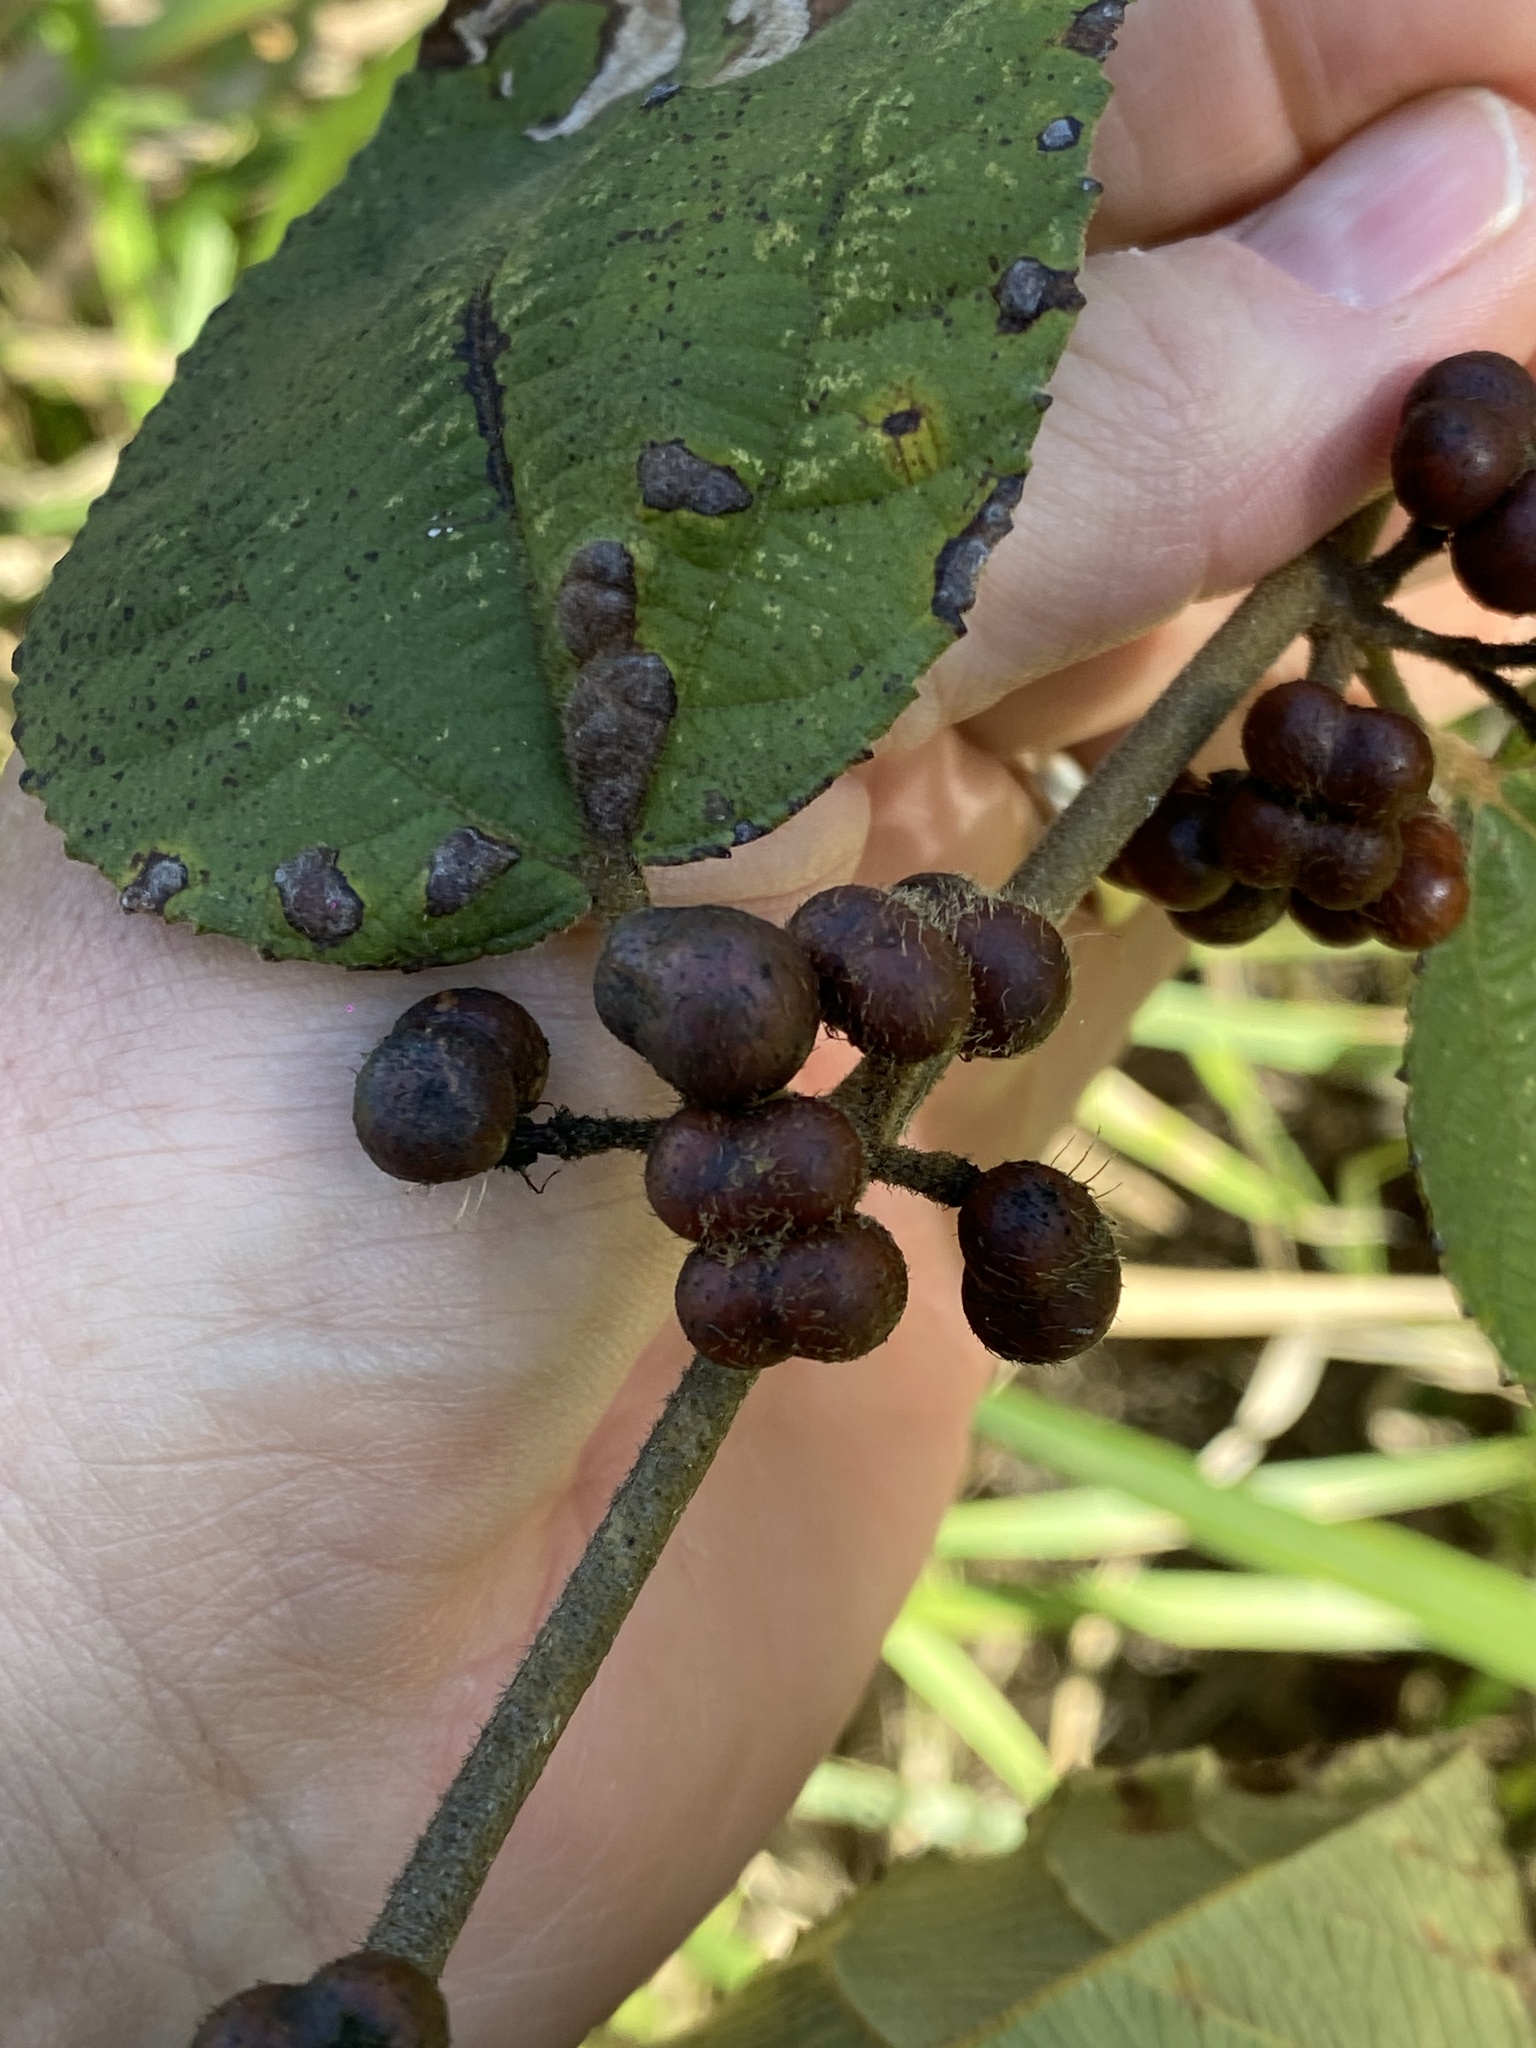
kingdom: Plantae
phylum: Tracheophyta
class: Magnoliopsida
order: Malvales
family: Malvaceae
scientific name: Malvaceae
